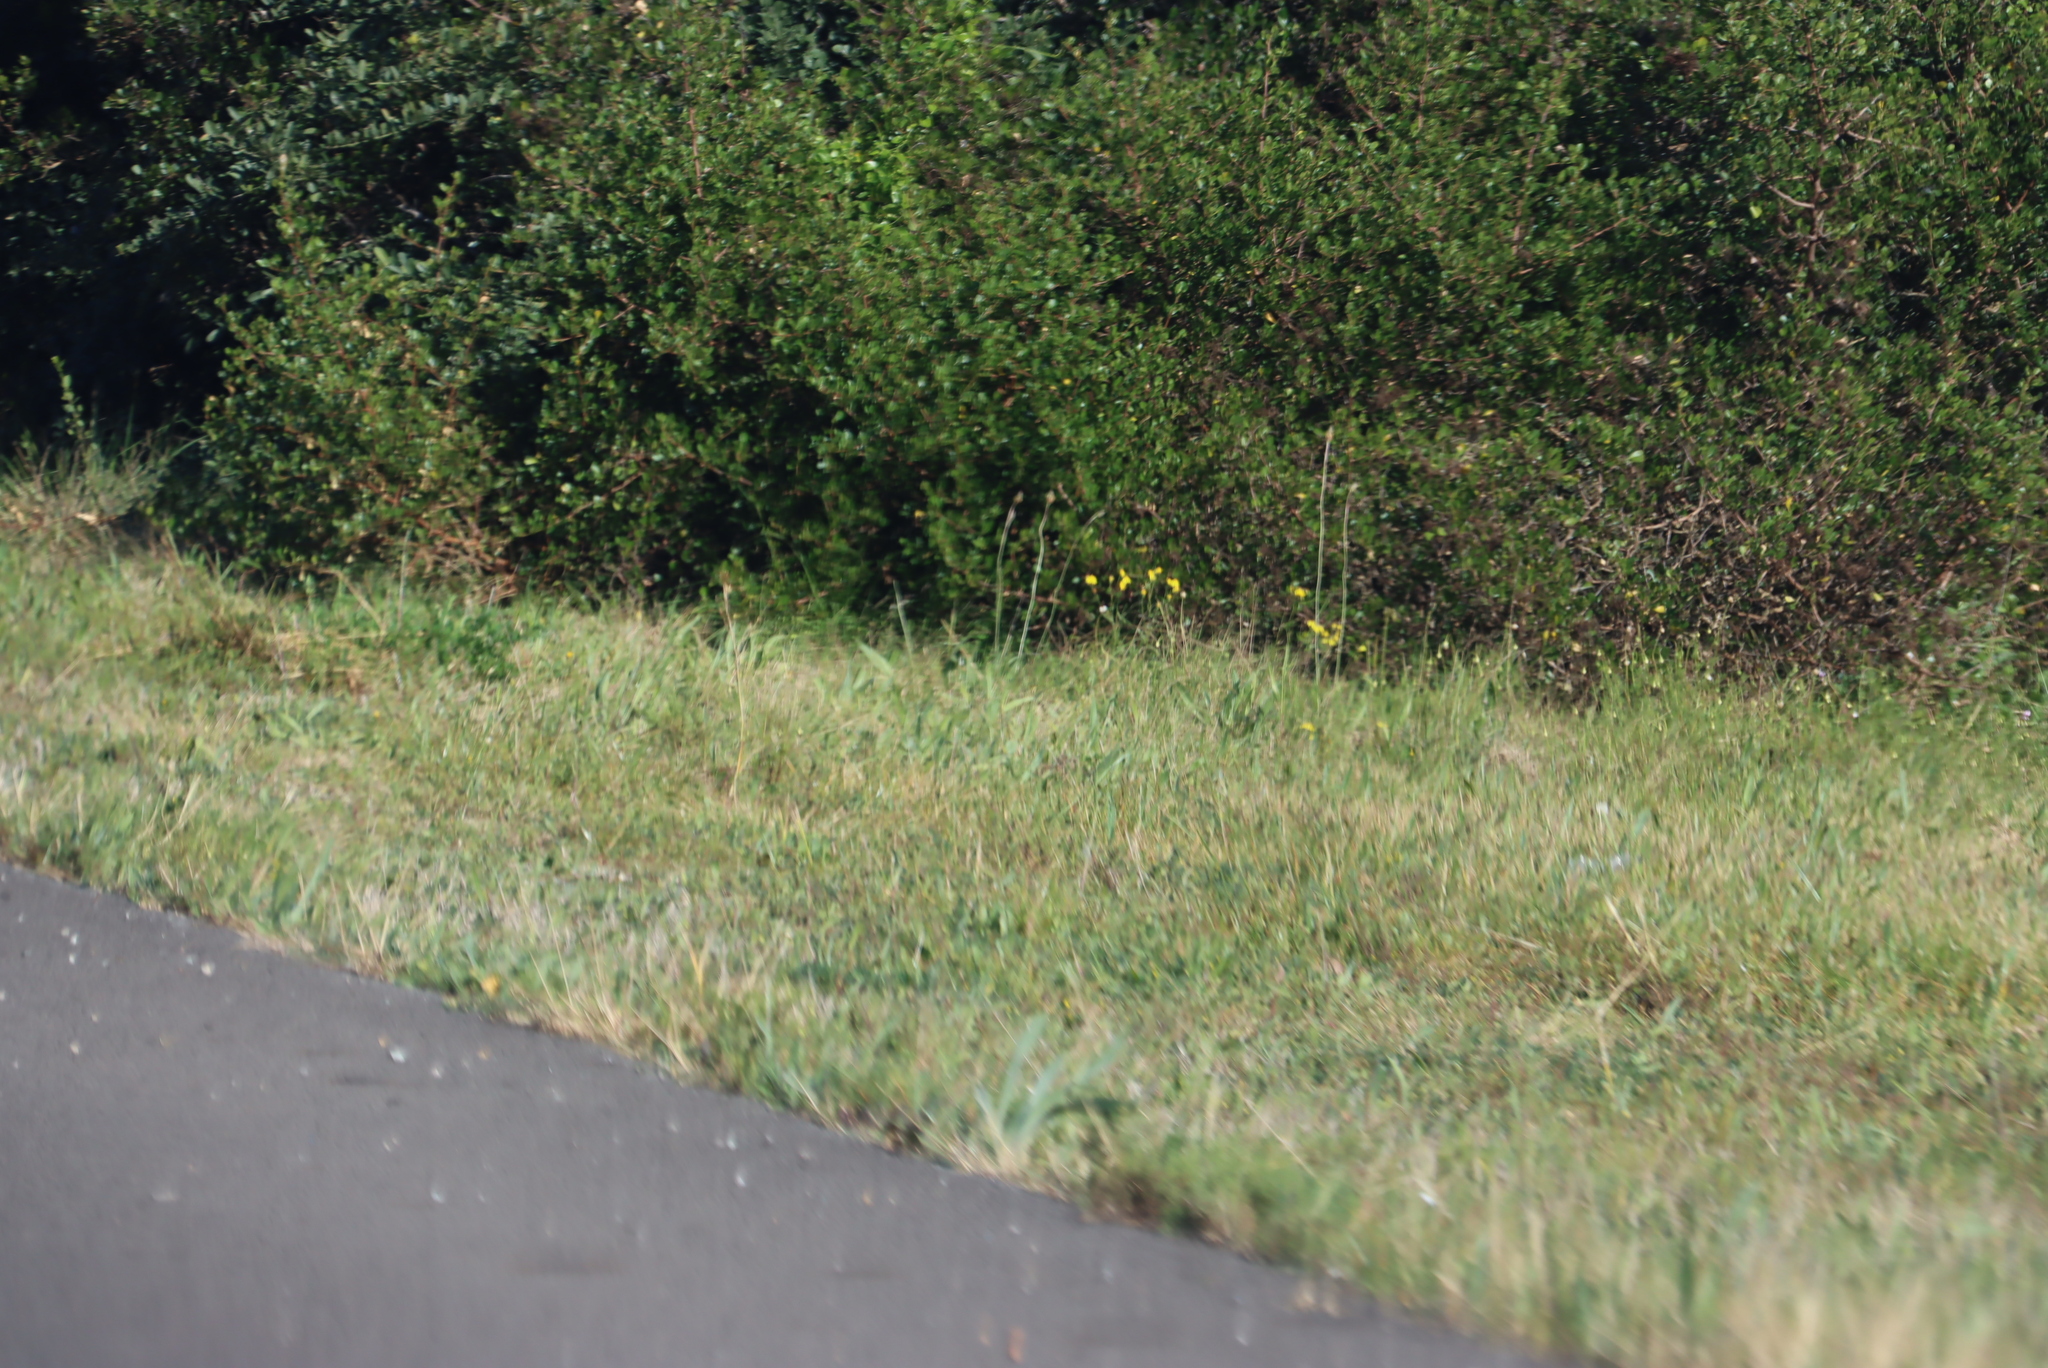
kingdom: Plantae
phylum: Tracheophyta
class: Magnoliopsida
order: Oxalidales
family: Oxalidaceae
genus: Oxalis
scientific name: Oxalis pes-caprae
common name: Bermuda-buttercup
